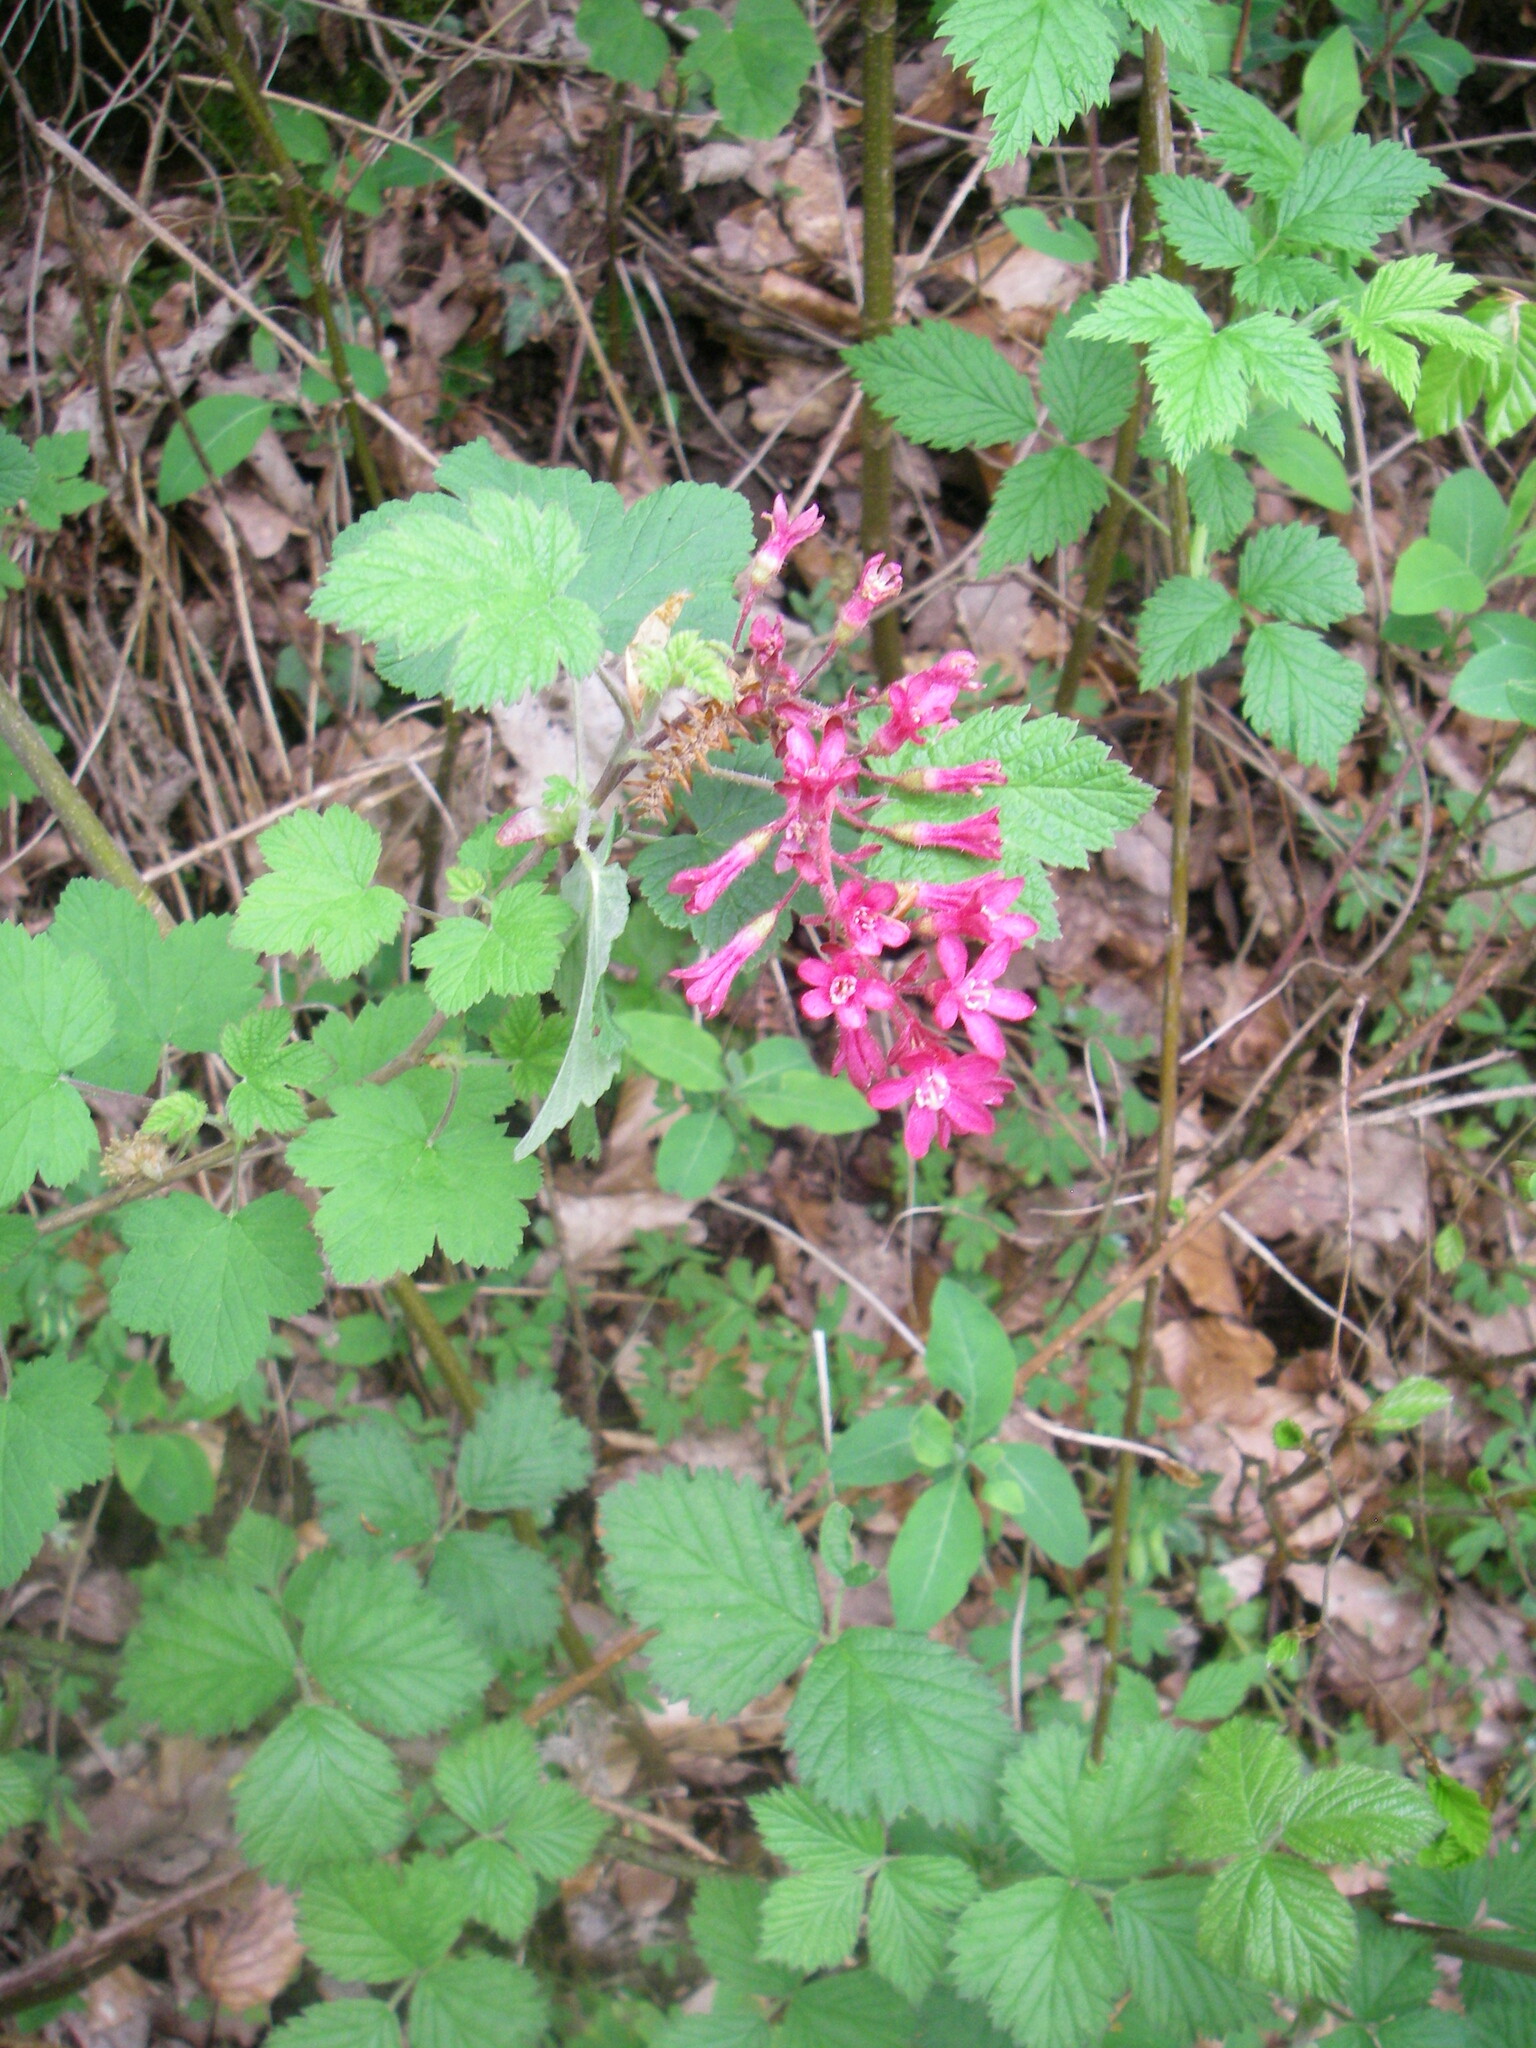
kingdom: Plantae
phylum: Tracheophyta
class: Magnoliopsida
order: Saxifragales
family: Grossulariaceae
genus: Ribes
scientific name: Ribes sanguineum
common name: Flowering currant
